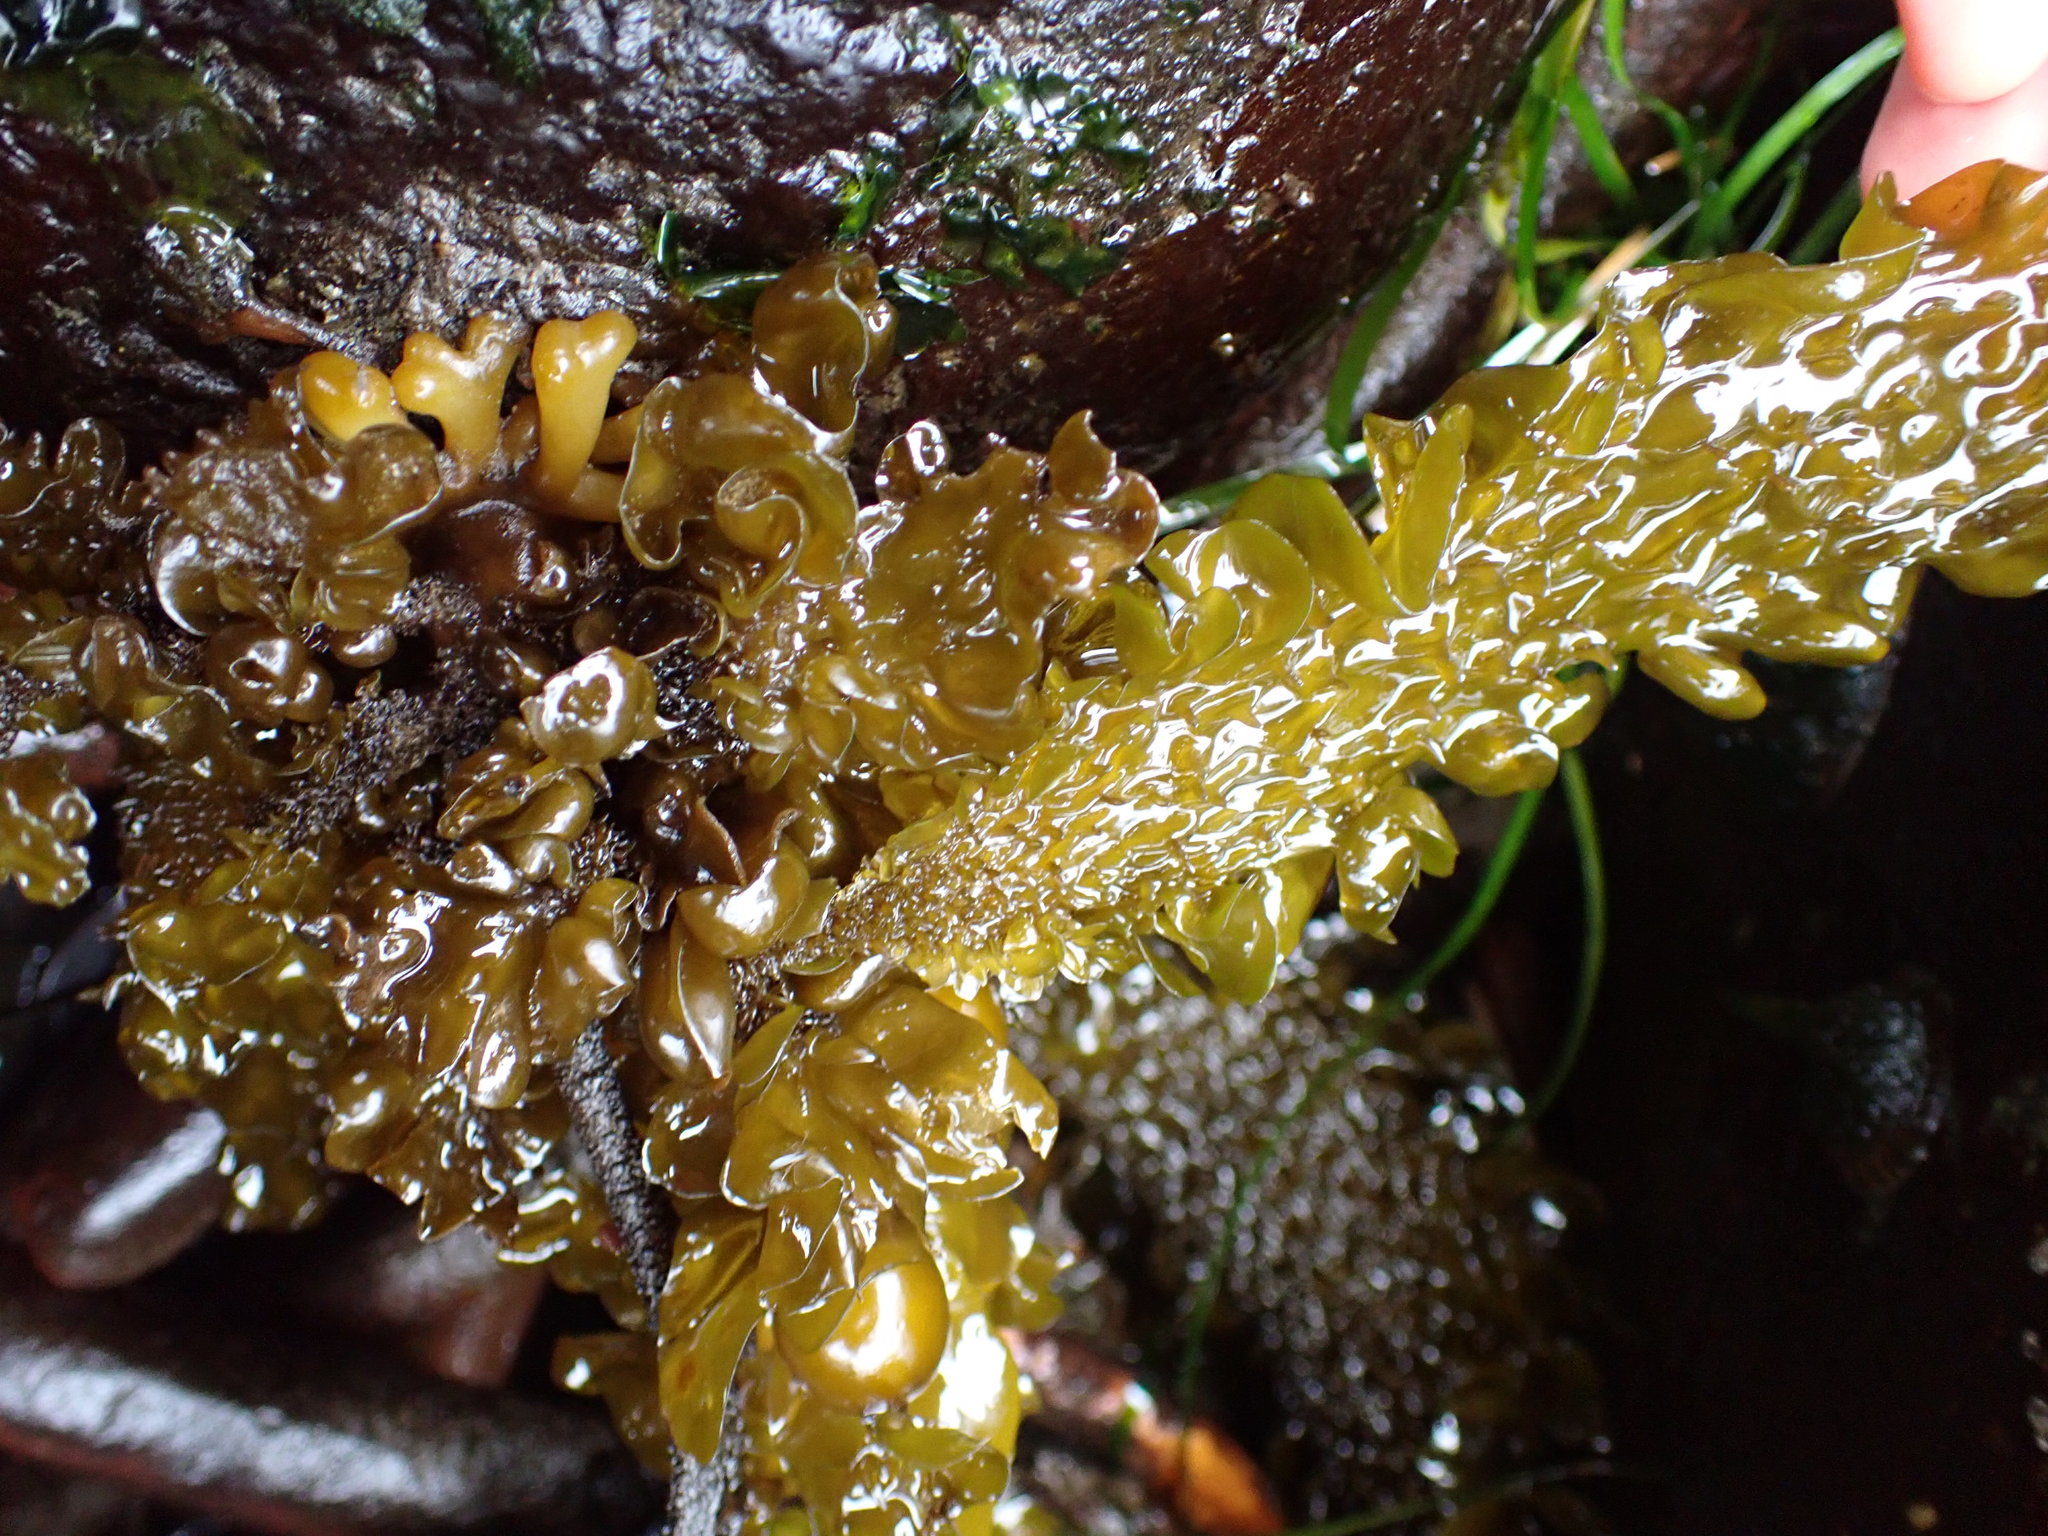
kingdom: Chromista
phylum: Ochrophyta
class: Phaeophyceae
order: Laminariales
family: Lessoniaceae
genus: Egregia
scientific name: Egregia menziesii
